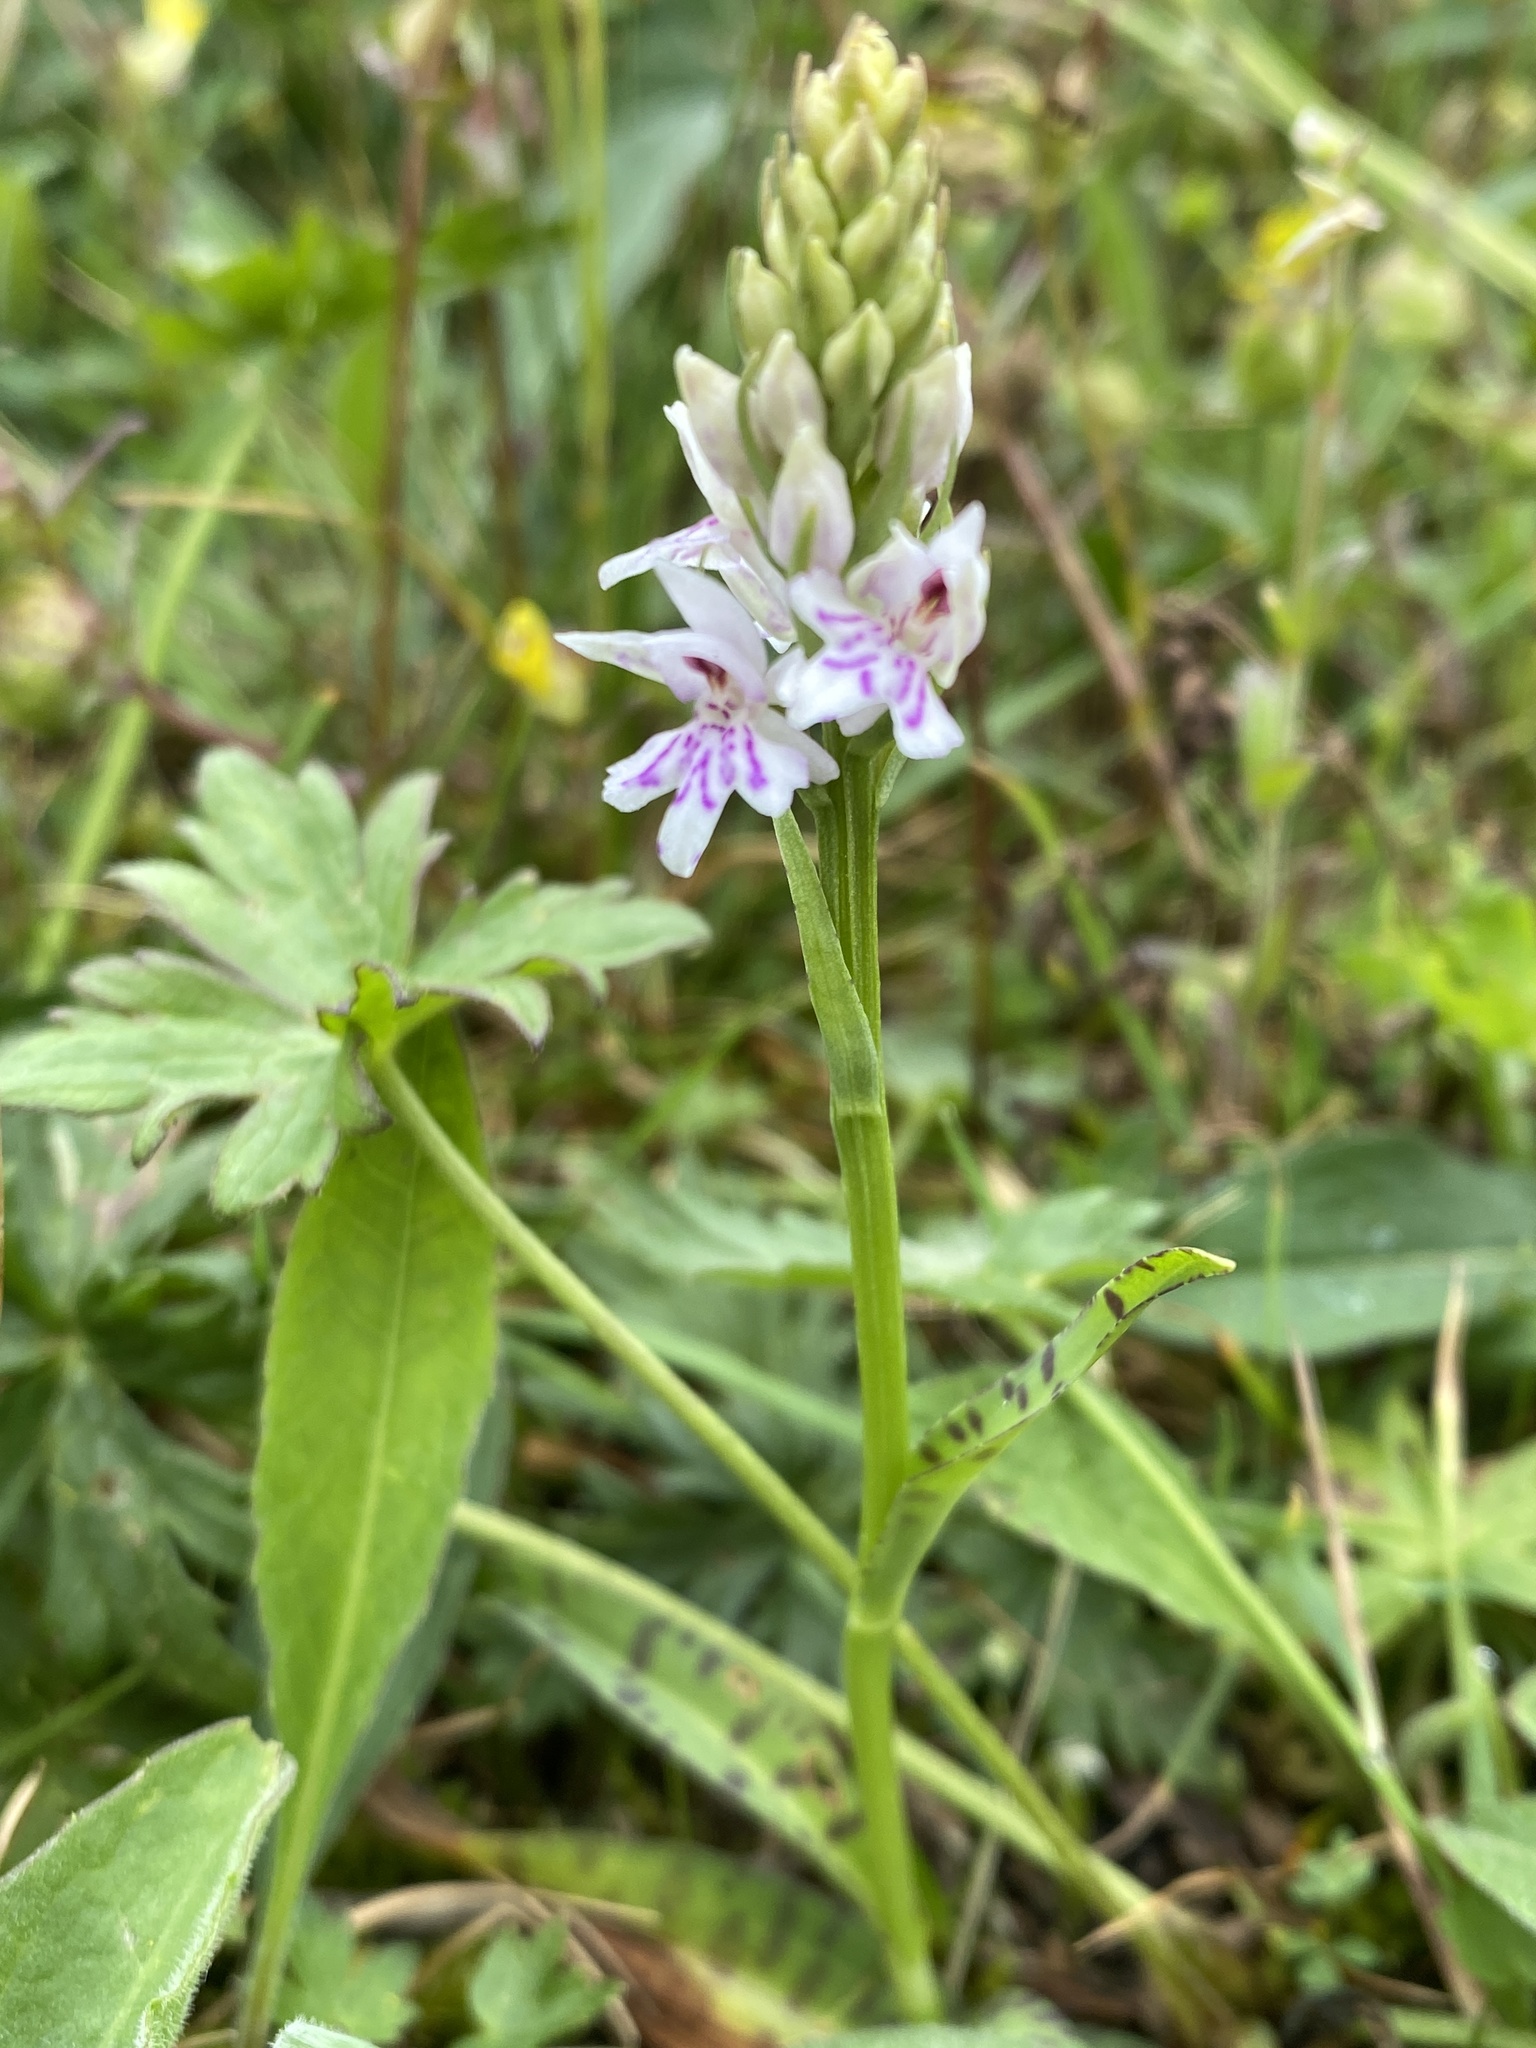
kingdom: Plantae
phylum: Tracheophyta
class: Liliopsida
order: Asparagales
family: Orchidaceae
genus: Dactylorhiza
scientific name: Dactylorhiza maculata
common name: Heath spotted-orchid
